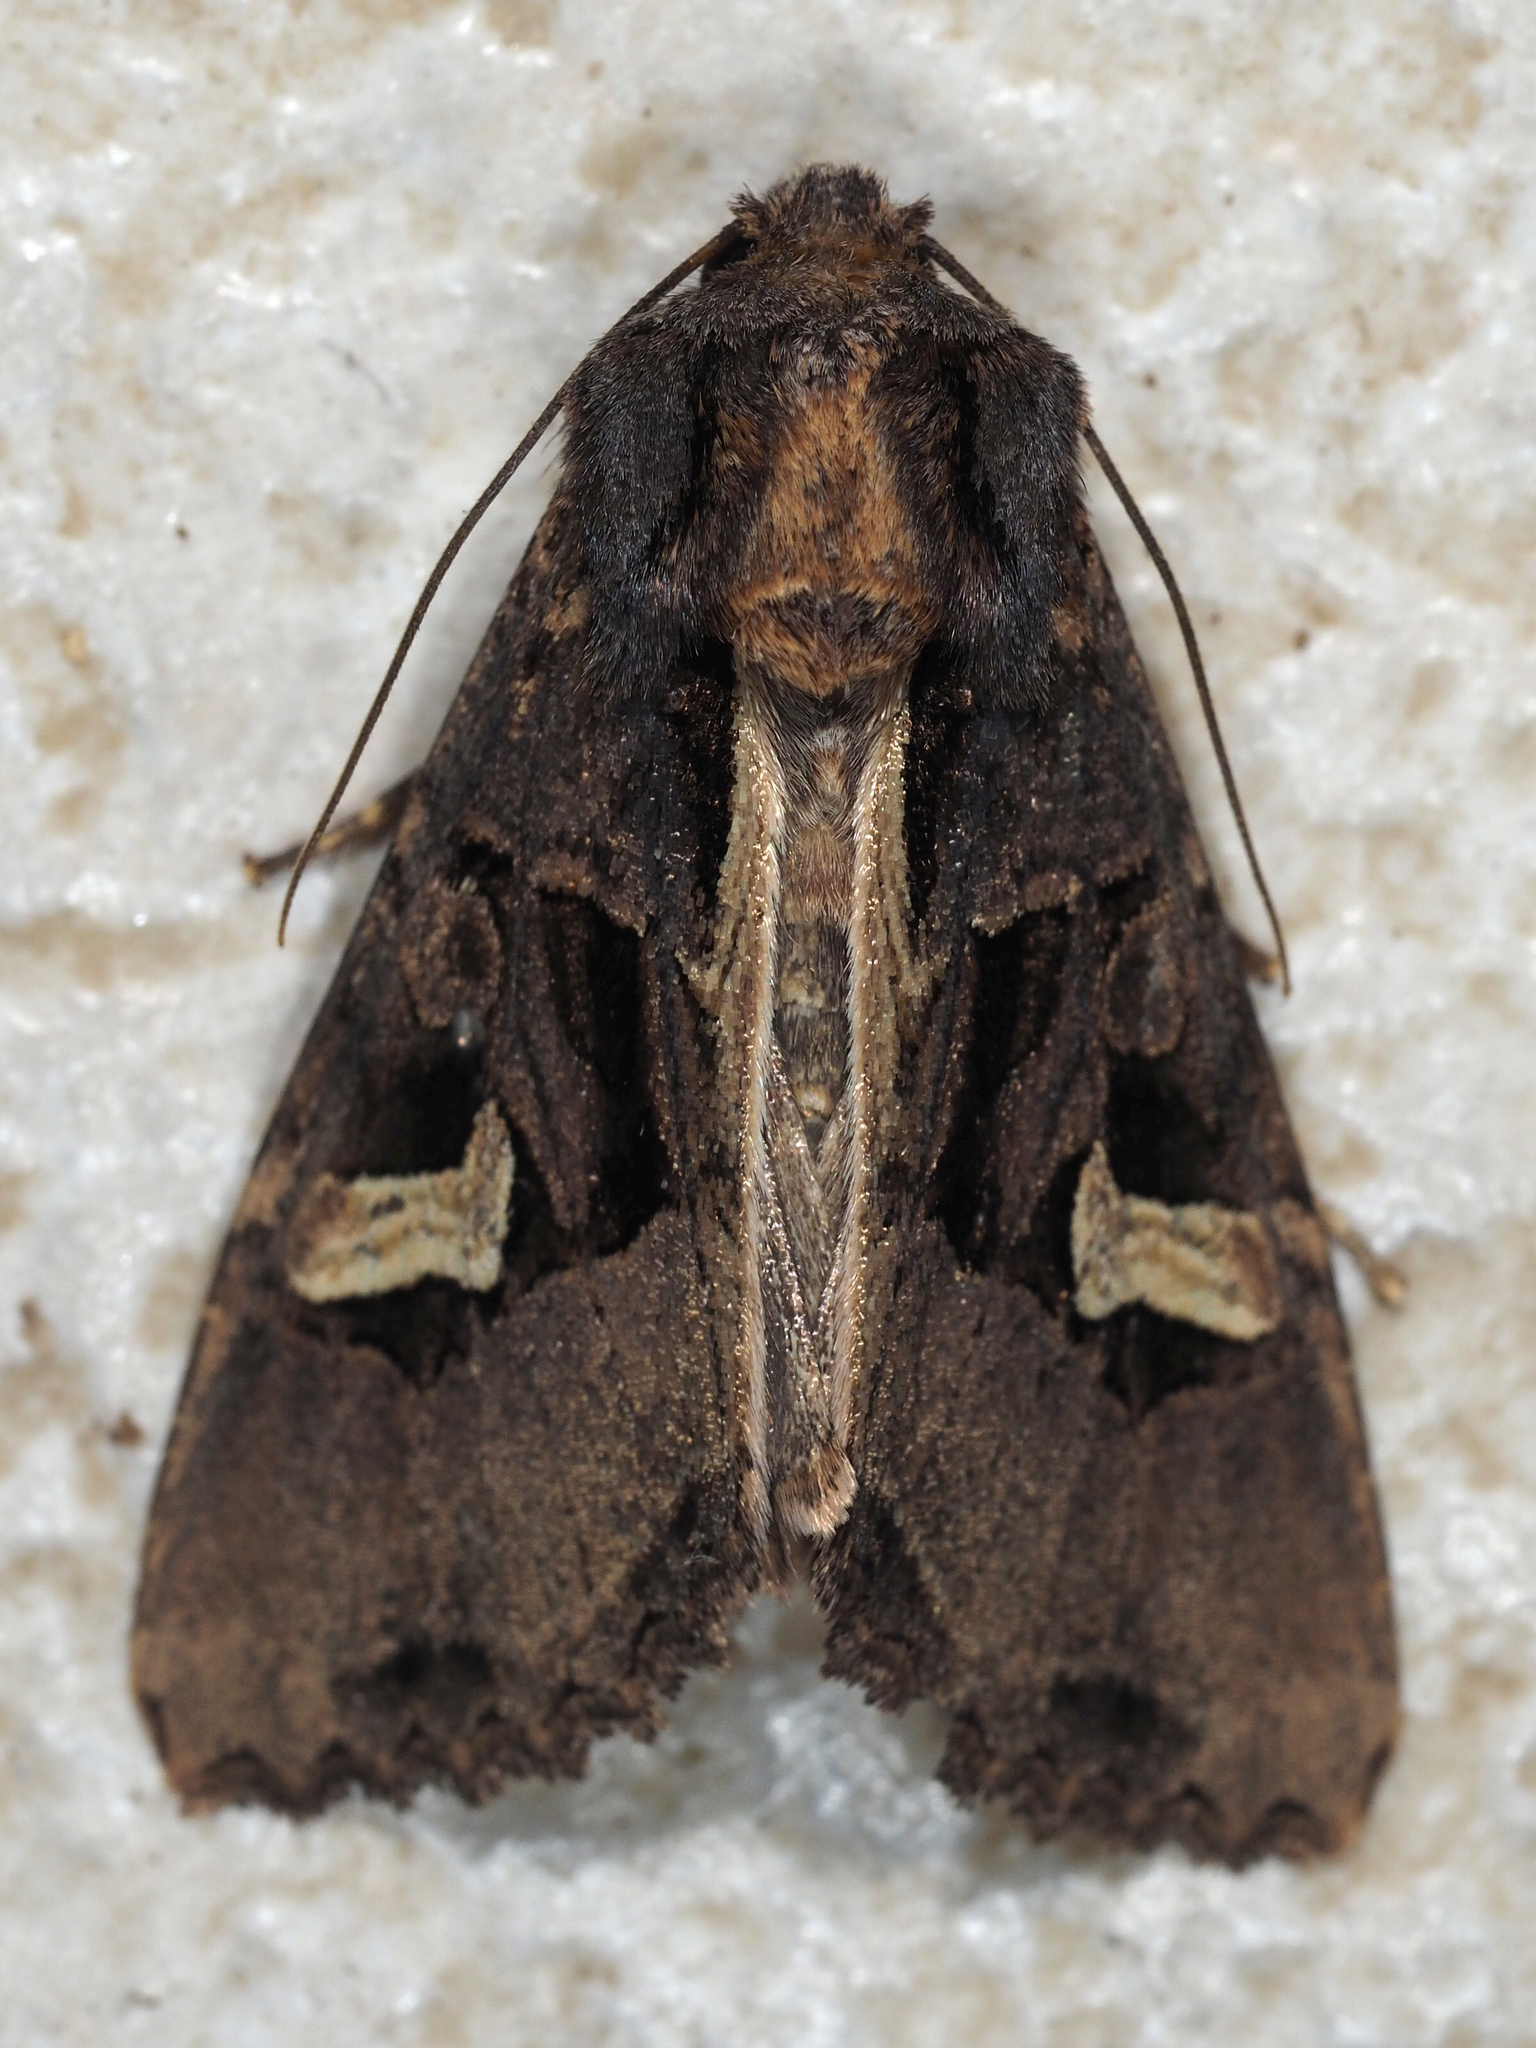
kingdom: Animalia
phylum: Arthropoda
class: Insecta
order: Lepidoptera
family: Noctuidae
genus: Trigonophora
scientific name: Trigonophora flammea
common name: Flame brocade
